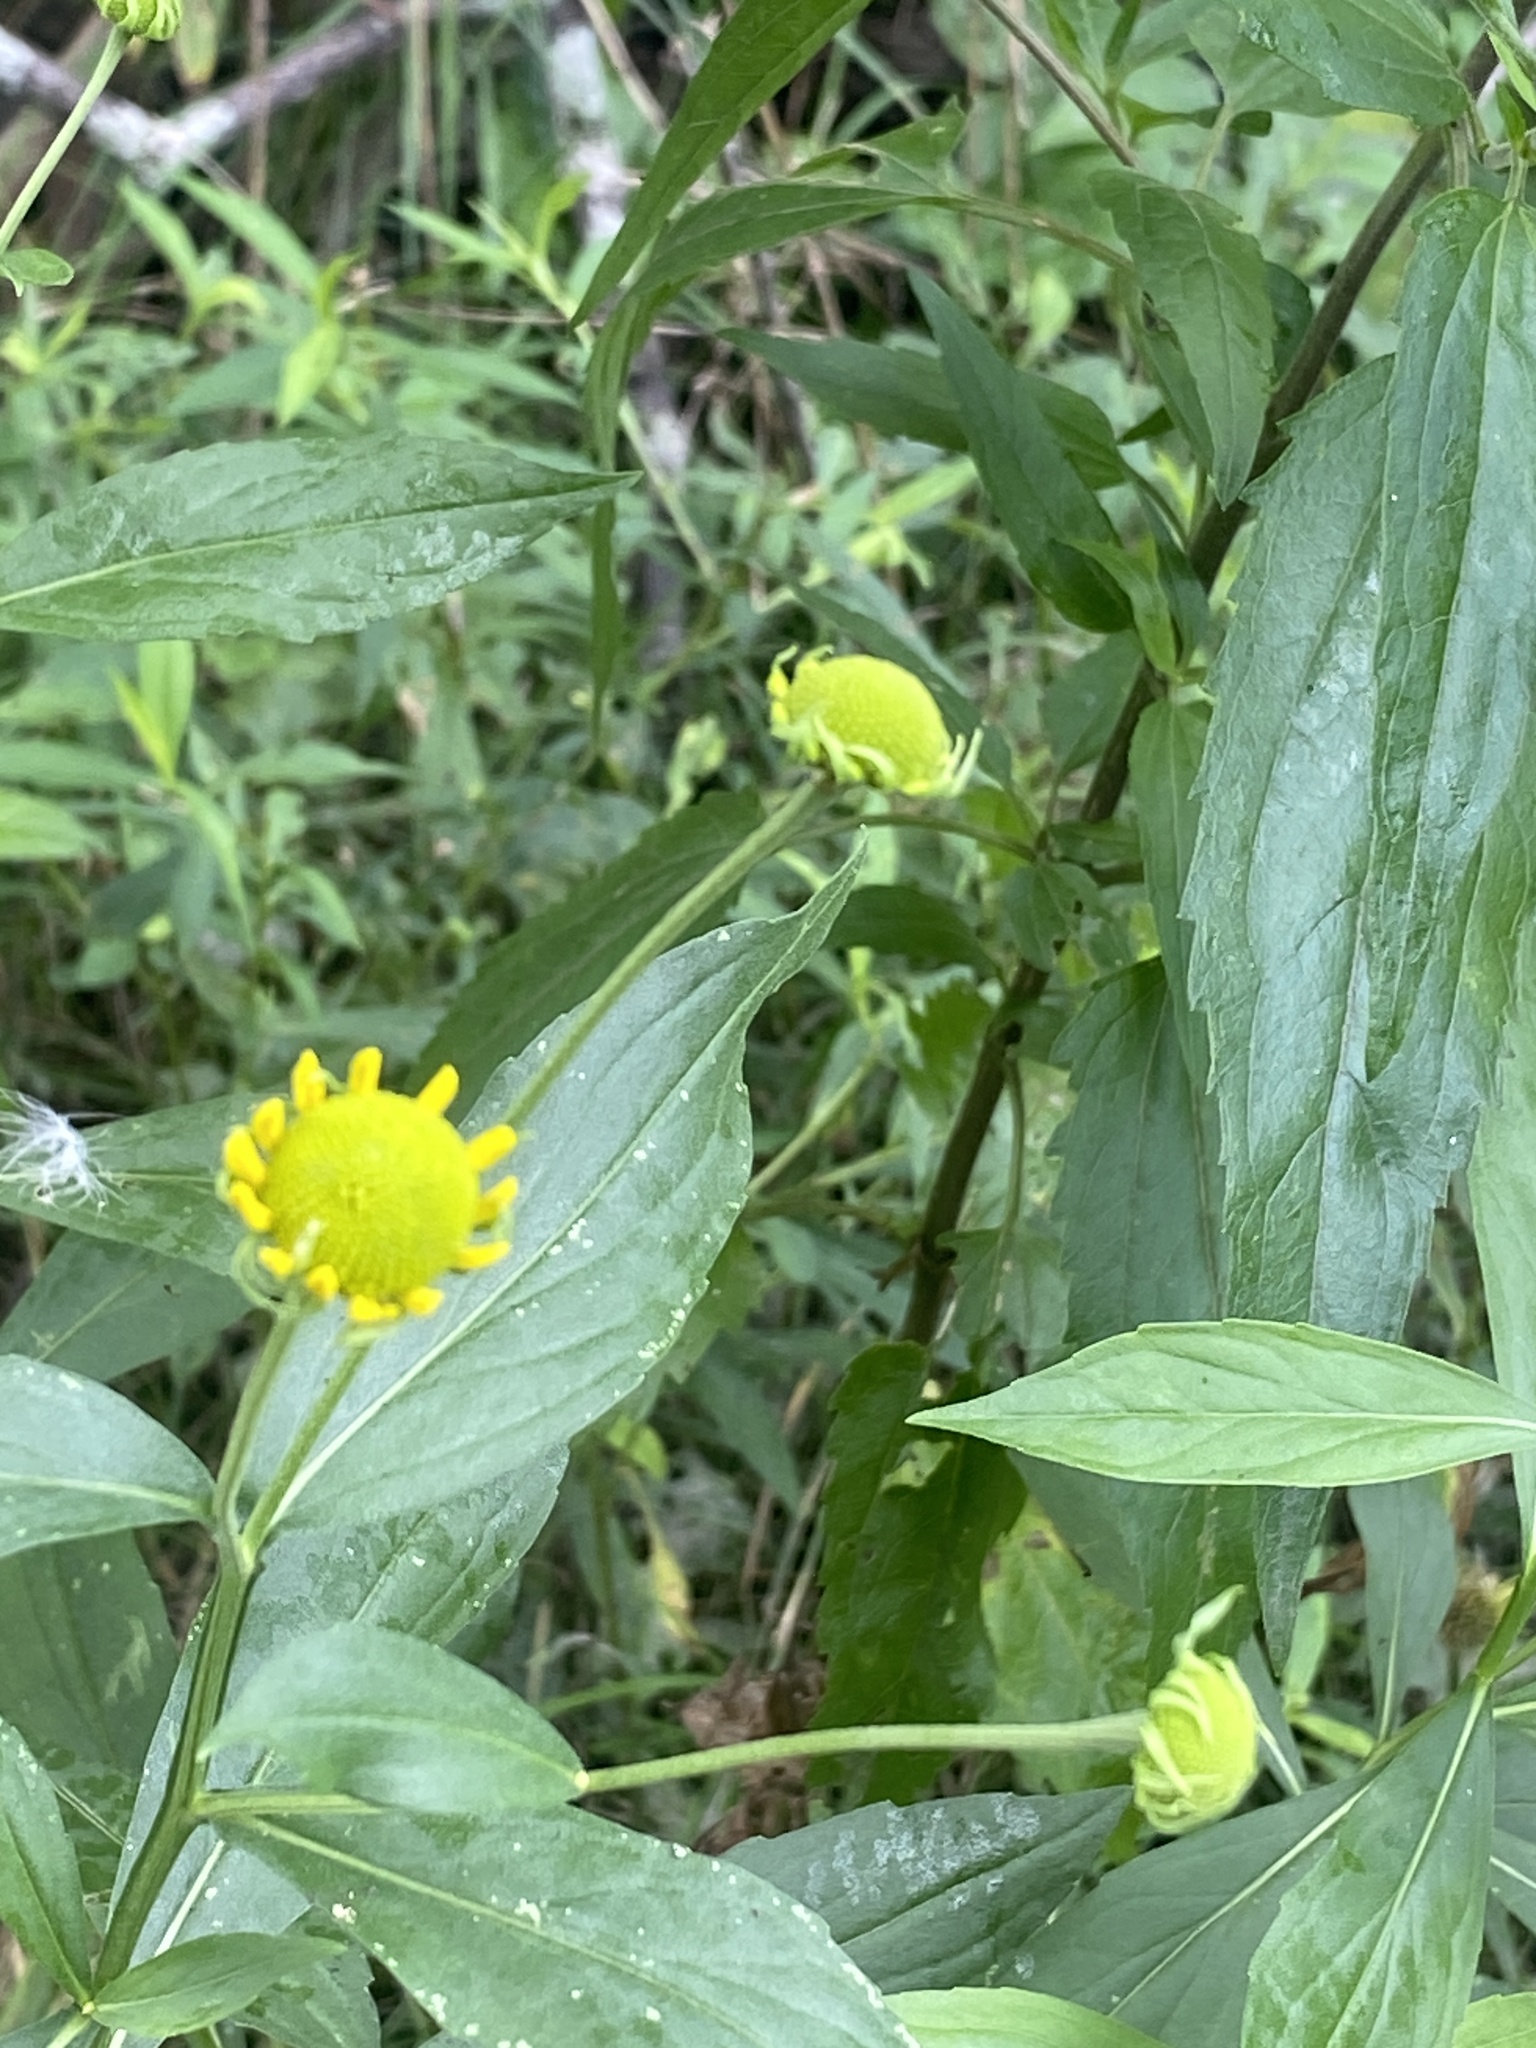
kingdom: Plantae
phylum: Tracheophyta
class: Magnoliopsida
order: Asterales
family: Asteraceae
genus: Helenium
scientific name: Helenium autumnale
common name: Sneezeweed
